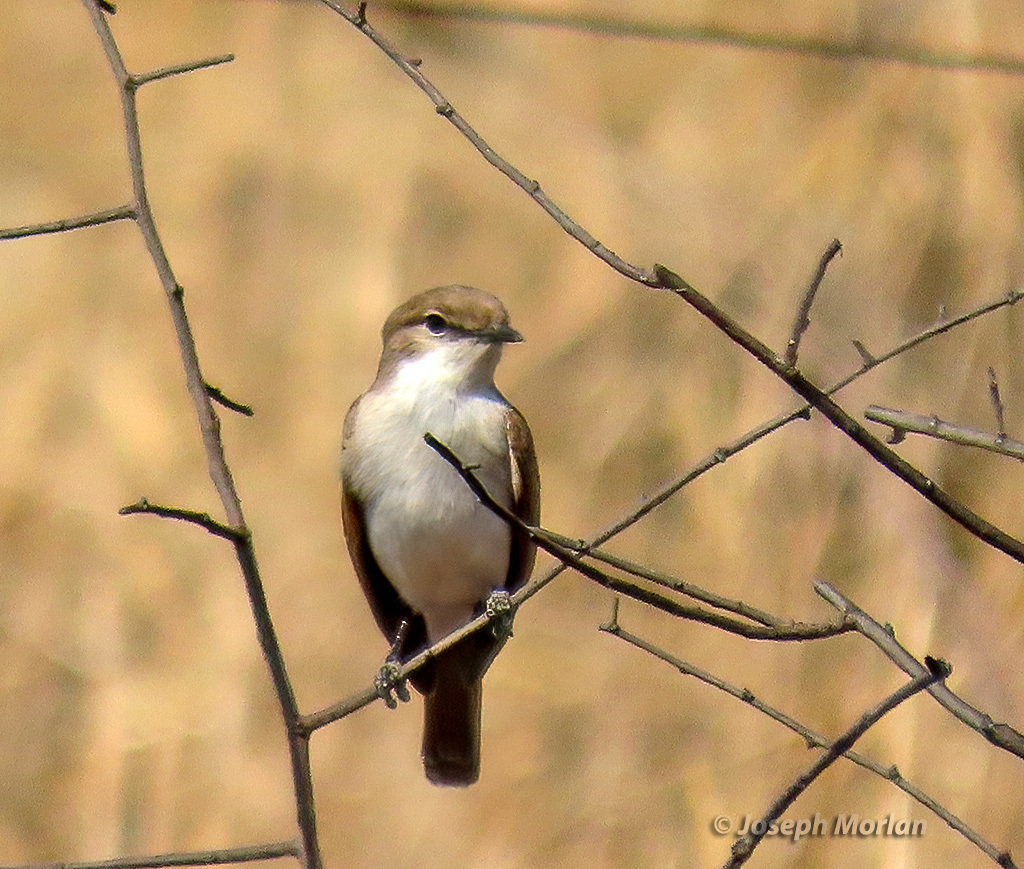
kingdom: Animalia
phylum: Chordata
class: Aves
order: Passeriformes
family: Muscicapidae
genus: Bradornis
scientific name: Bradornis mariquensis
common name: Marico flycatcher
